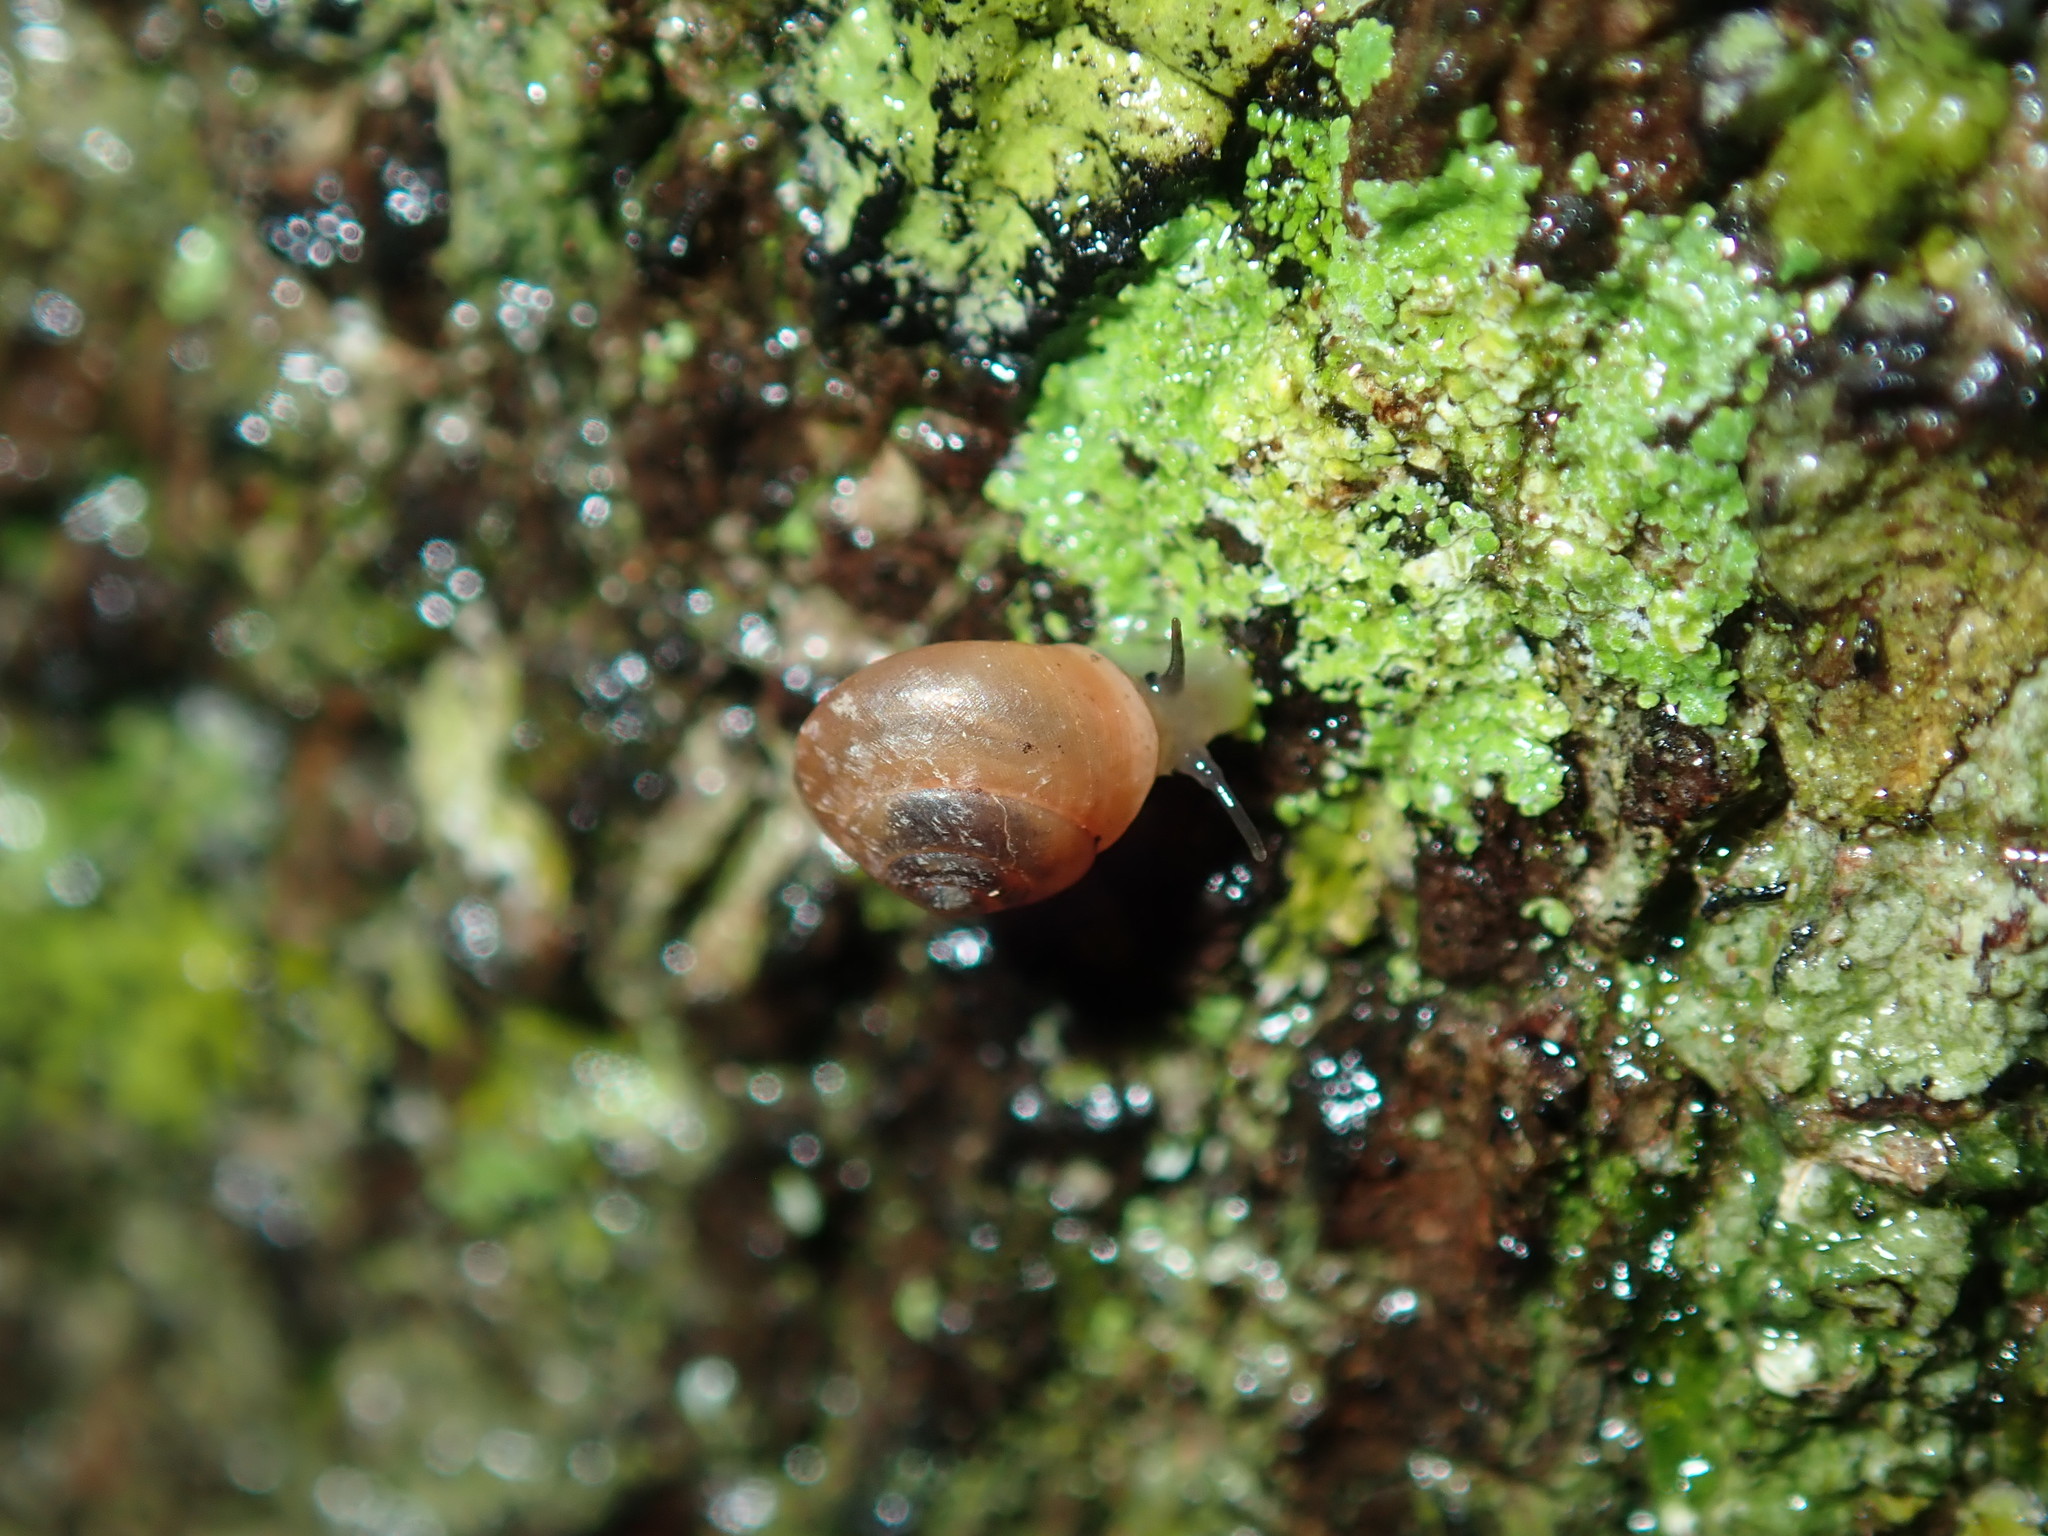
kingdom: Animalia
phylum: Mollusca
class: Gastropoda
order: Cycloneritida
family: Helicinidae
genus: Pleuropoma
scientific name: Pleuropoma jana
